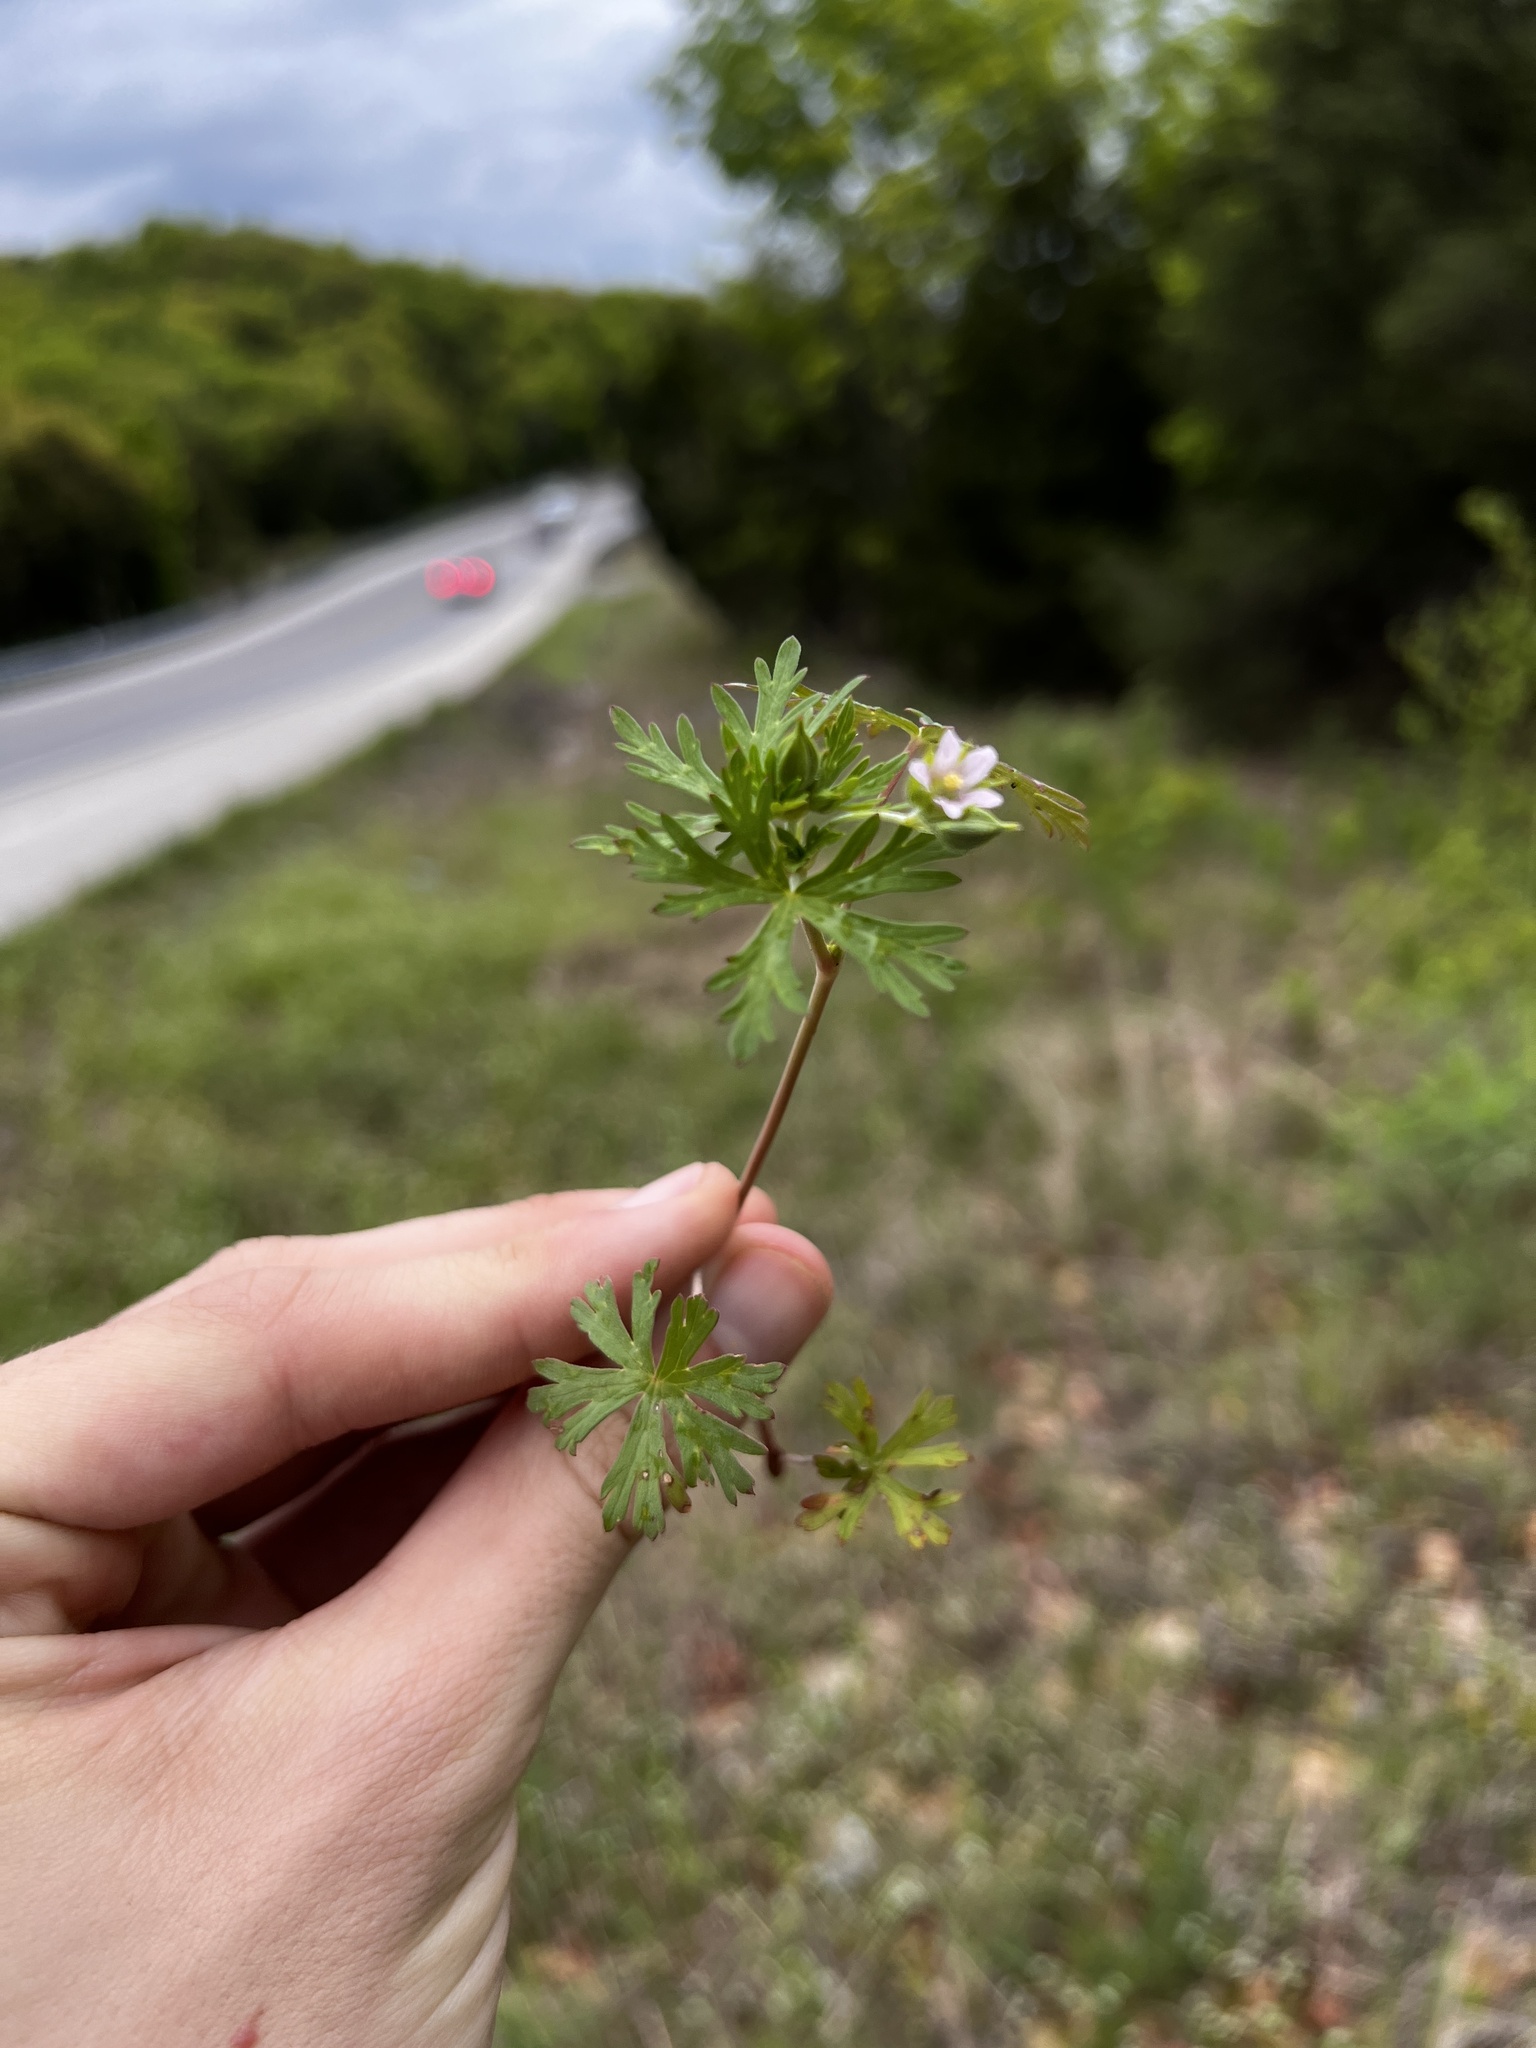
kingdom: Plantae
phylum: Tracheophyta
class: Magnoliopsida
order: Geraniales
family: Geraniaceae
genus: Geranium
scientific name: Geranium carolinianum
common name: Carolina crane's-bill
